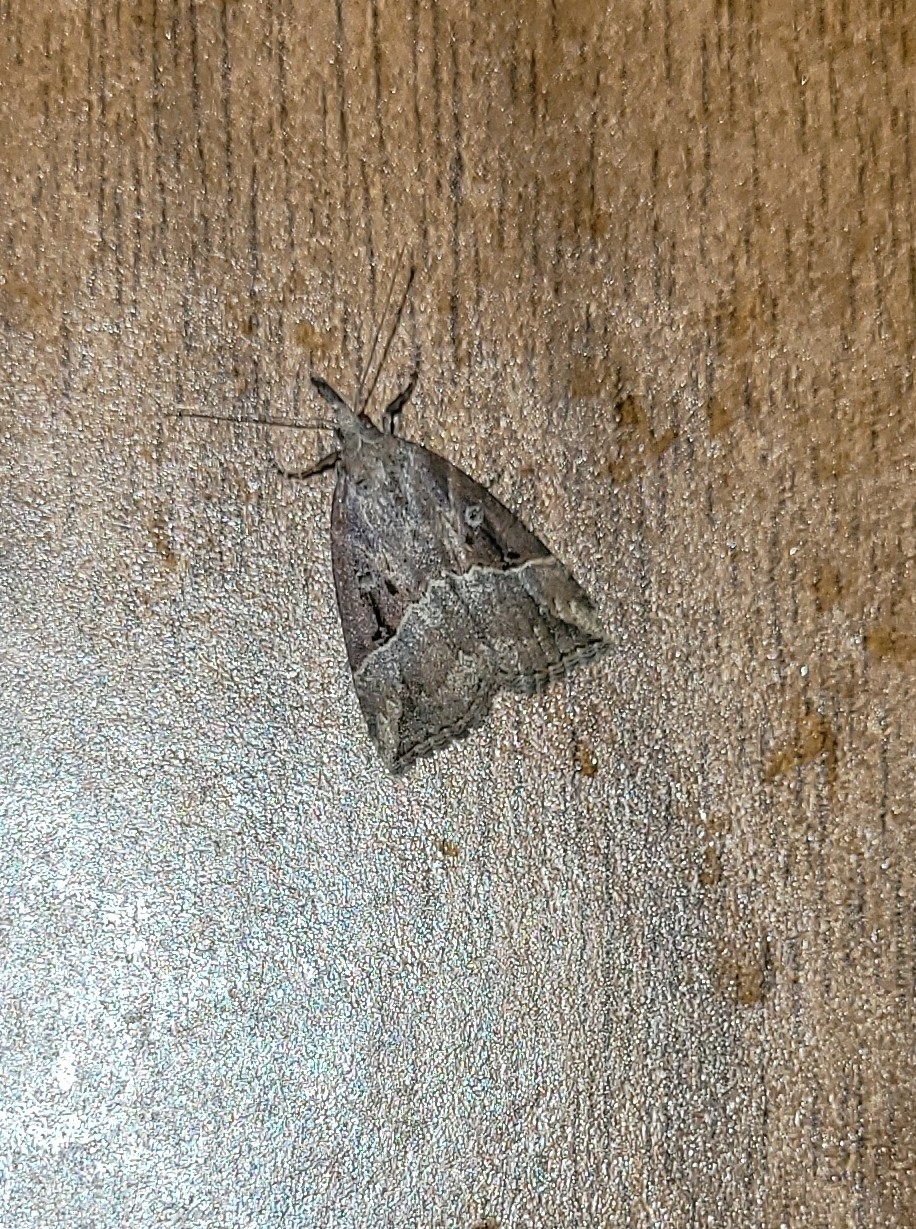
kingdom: Animalia
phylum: Arthropoda
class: Insecta
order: Lepidoptera
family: Erebidae
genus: Hypena
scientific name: Hypena rostralis
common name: Buttoned snout
